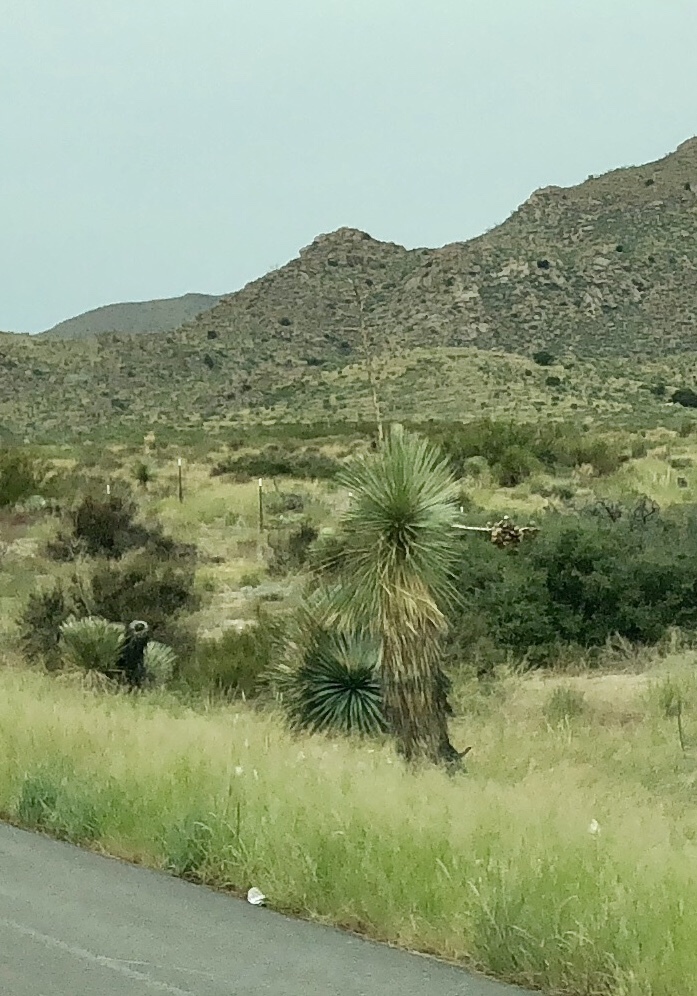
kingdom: Plantae
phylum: Tracheophyta
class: Liliopsida
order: Asparagales
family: Asparagaceae
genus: Yucca
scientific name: Yucca elata
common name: Palmella
